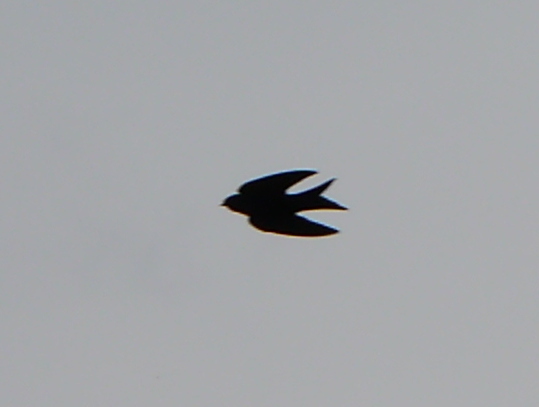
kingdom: Animalia
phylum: Chordata
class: Aves
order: Passeriformes
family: Hirundinidae
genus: Psalidoprocne
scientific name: Psalidoprocne pristoptera
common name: Black saw-wing
